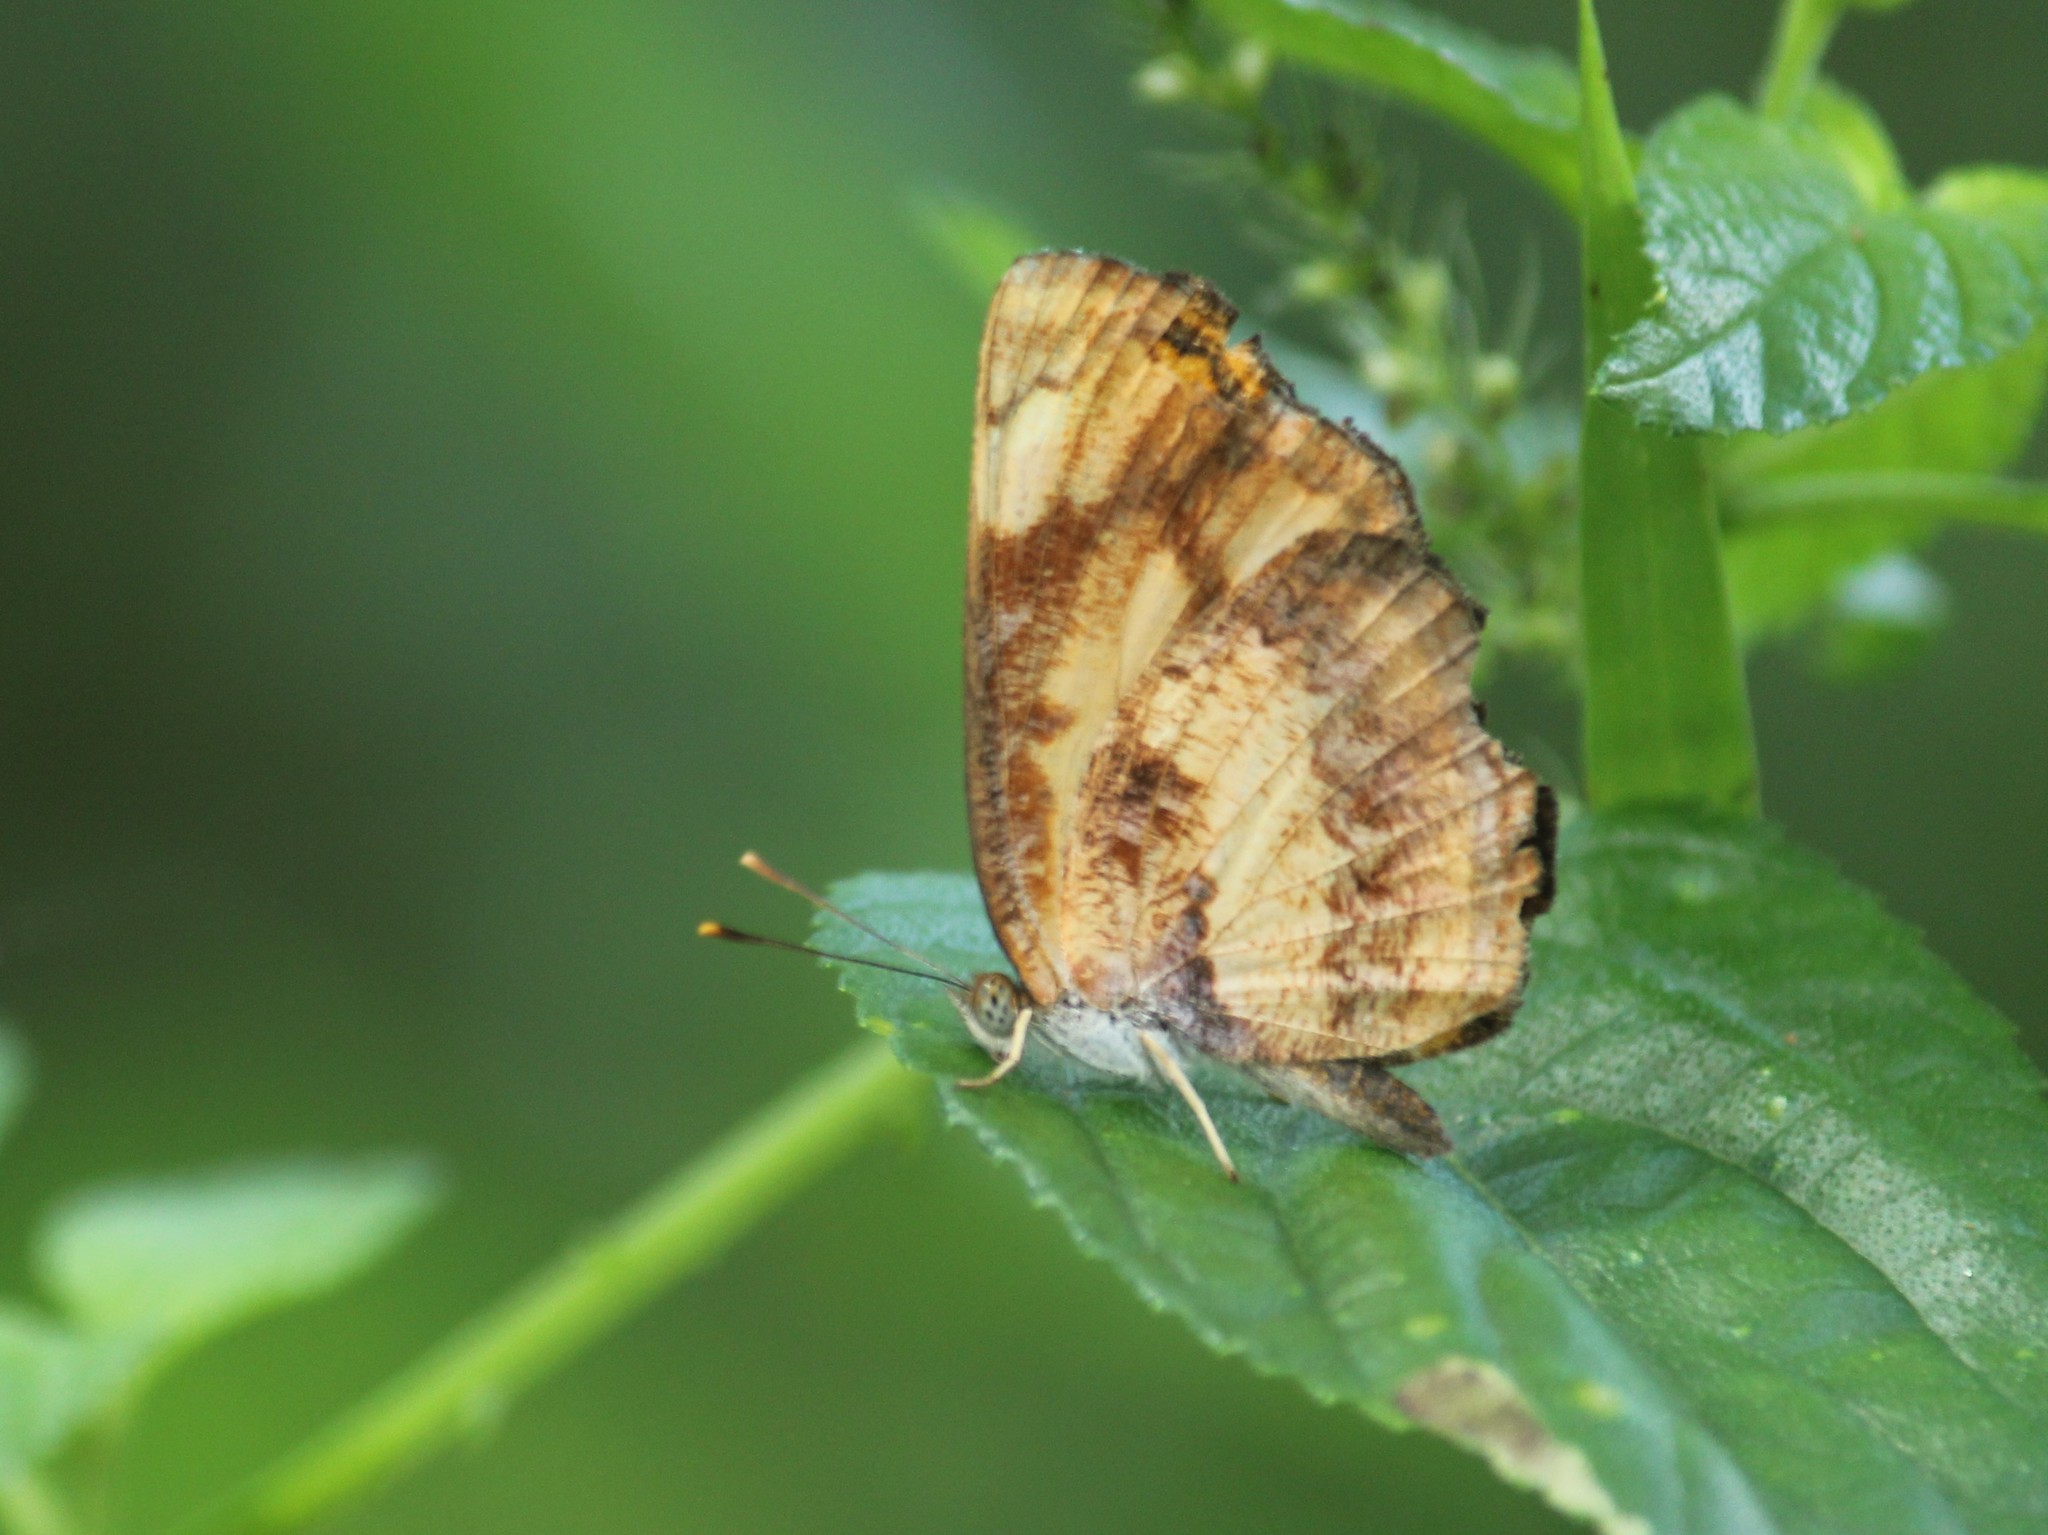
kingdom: Animalia
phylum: Arthropoda
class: Insecta
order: Lepidoptera
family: Nymphalidae
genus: Pantoporia
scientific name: Pantoporia hordonia
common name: Common lascar
